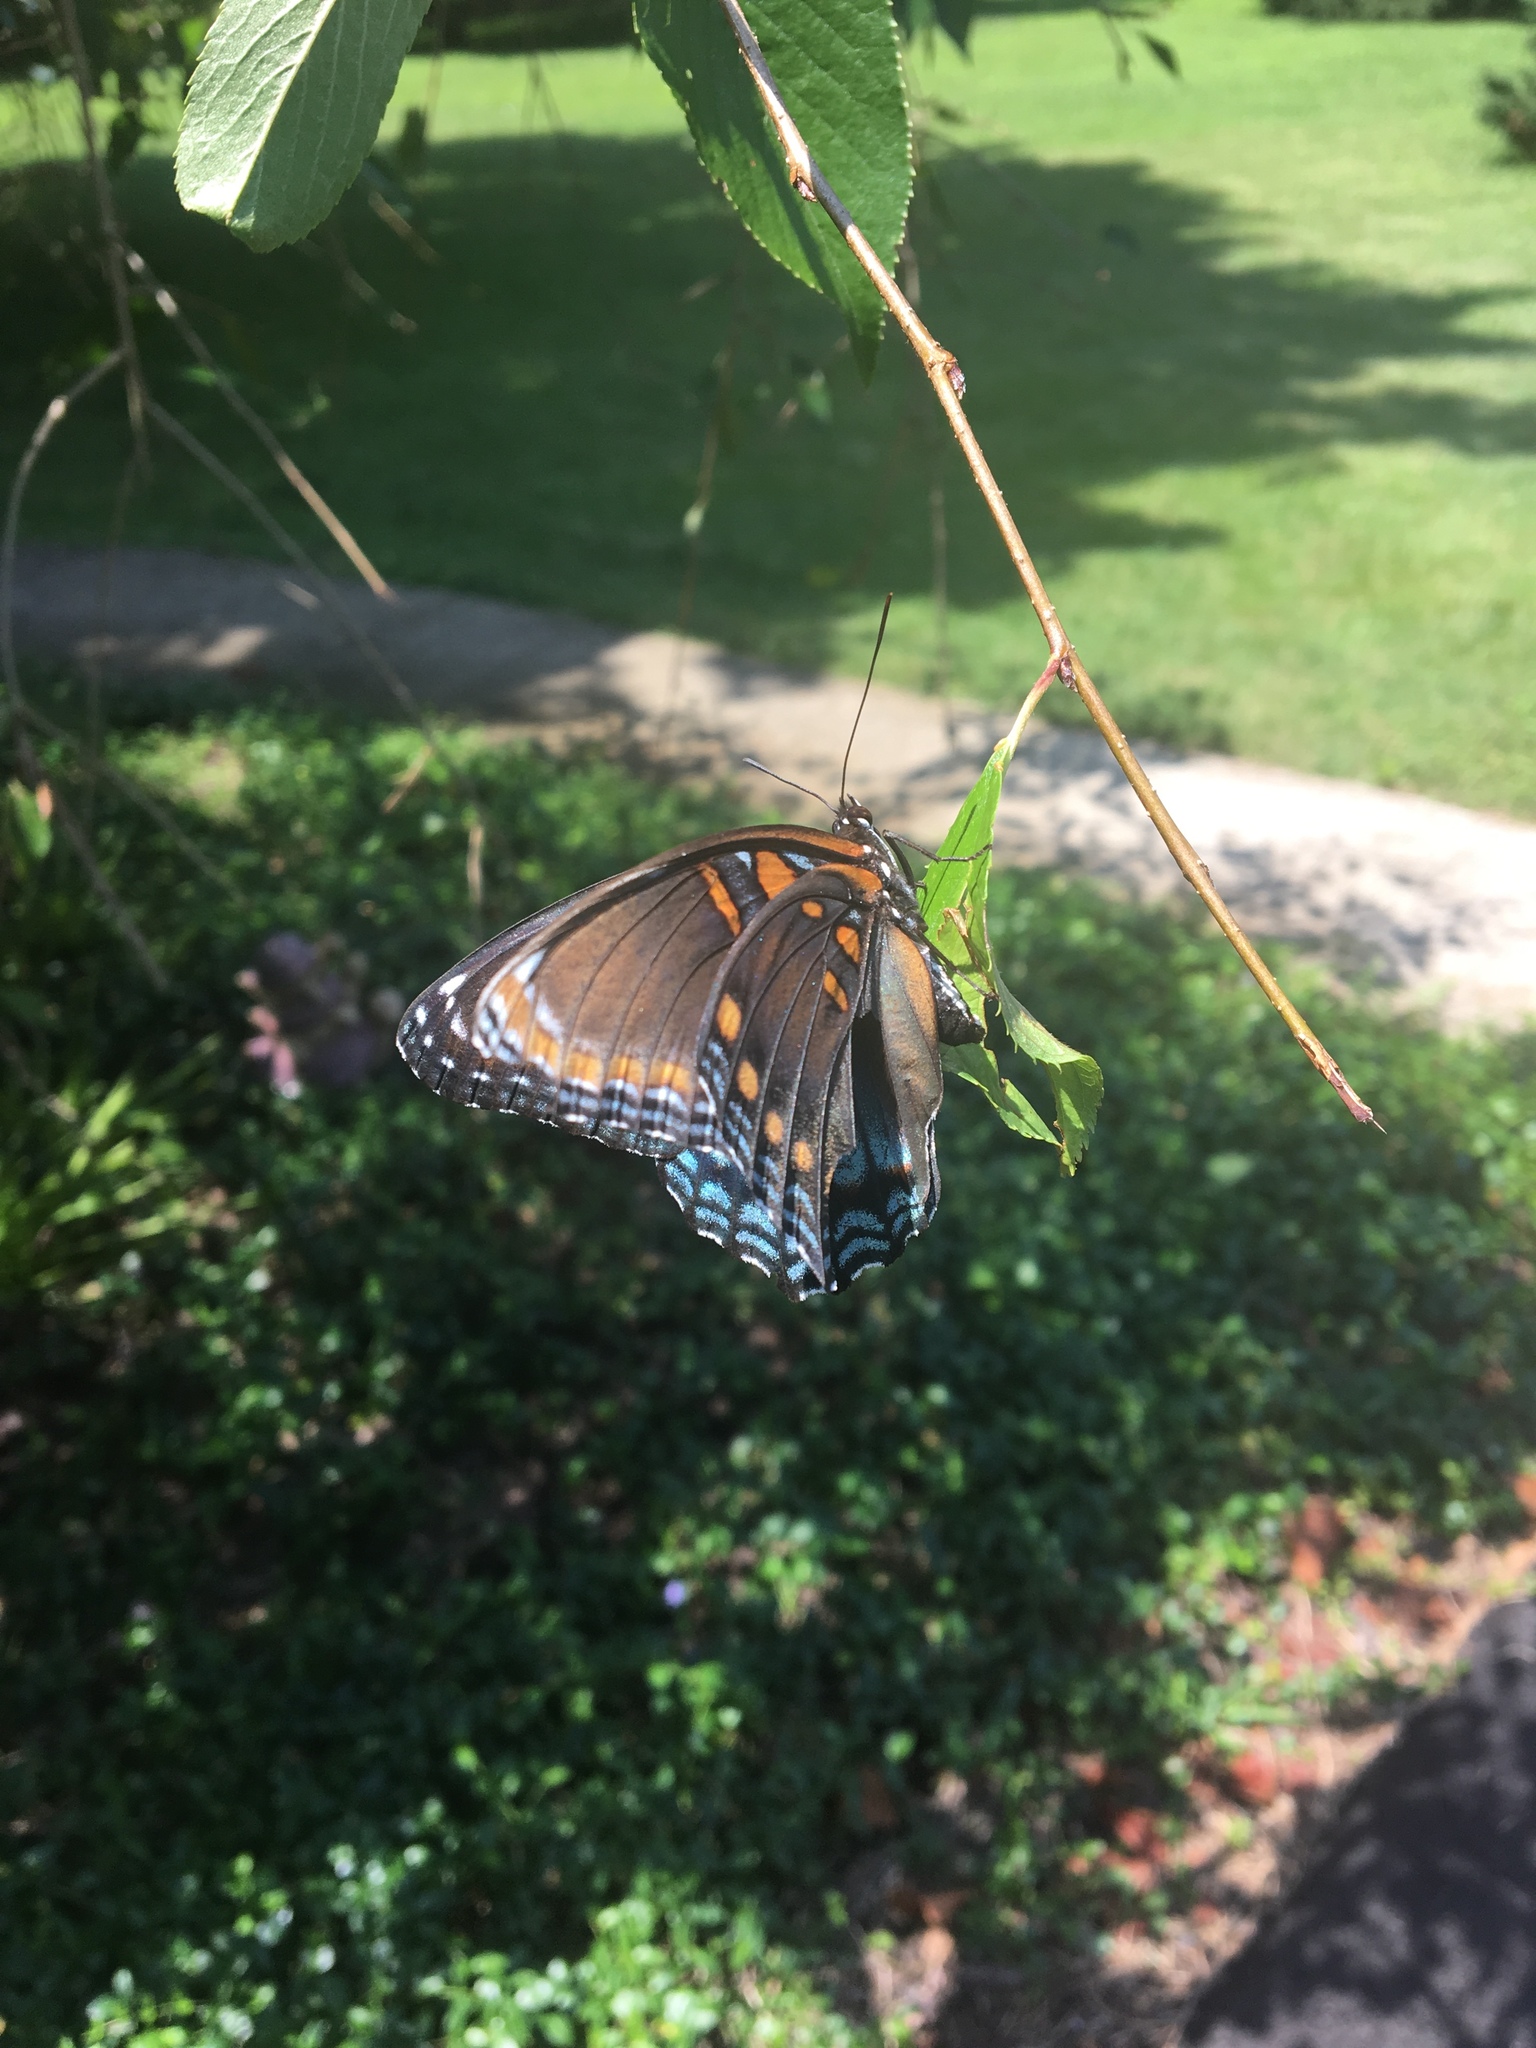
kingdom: Animalia
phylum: Arthropoda
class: Insecta
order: Lepidoptera
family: Nymphalidae
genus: Limenitis
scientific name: Limenitis arthemis
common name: Red-spotted admiral
